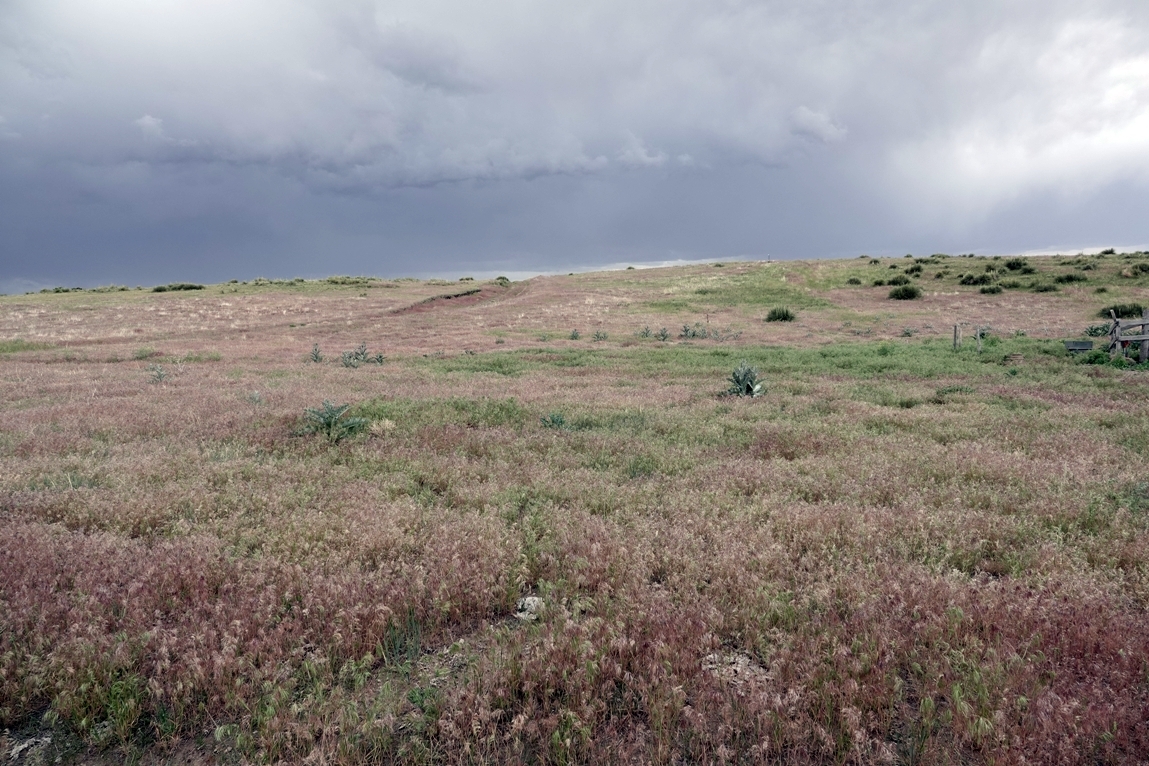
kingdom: Plantae
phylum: Tracheophyta
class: Magnoliopsida
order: Asterales
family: Asteraceae
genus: Onopordum
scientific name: Onopordum acanthium
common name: Scotch thistle
